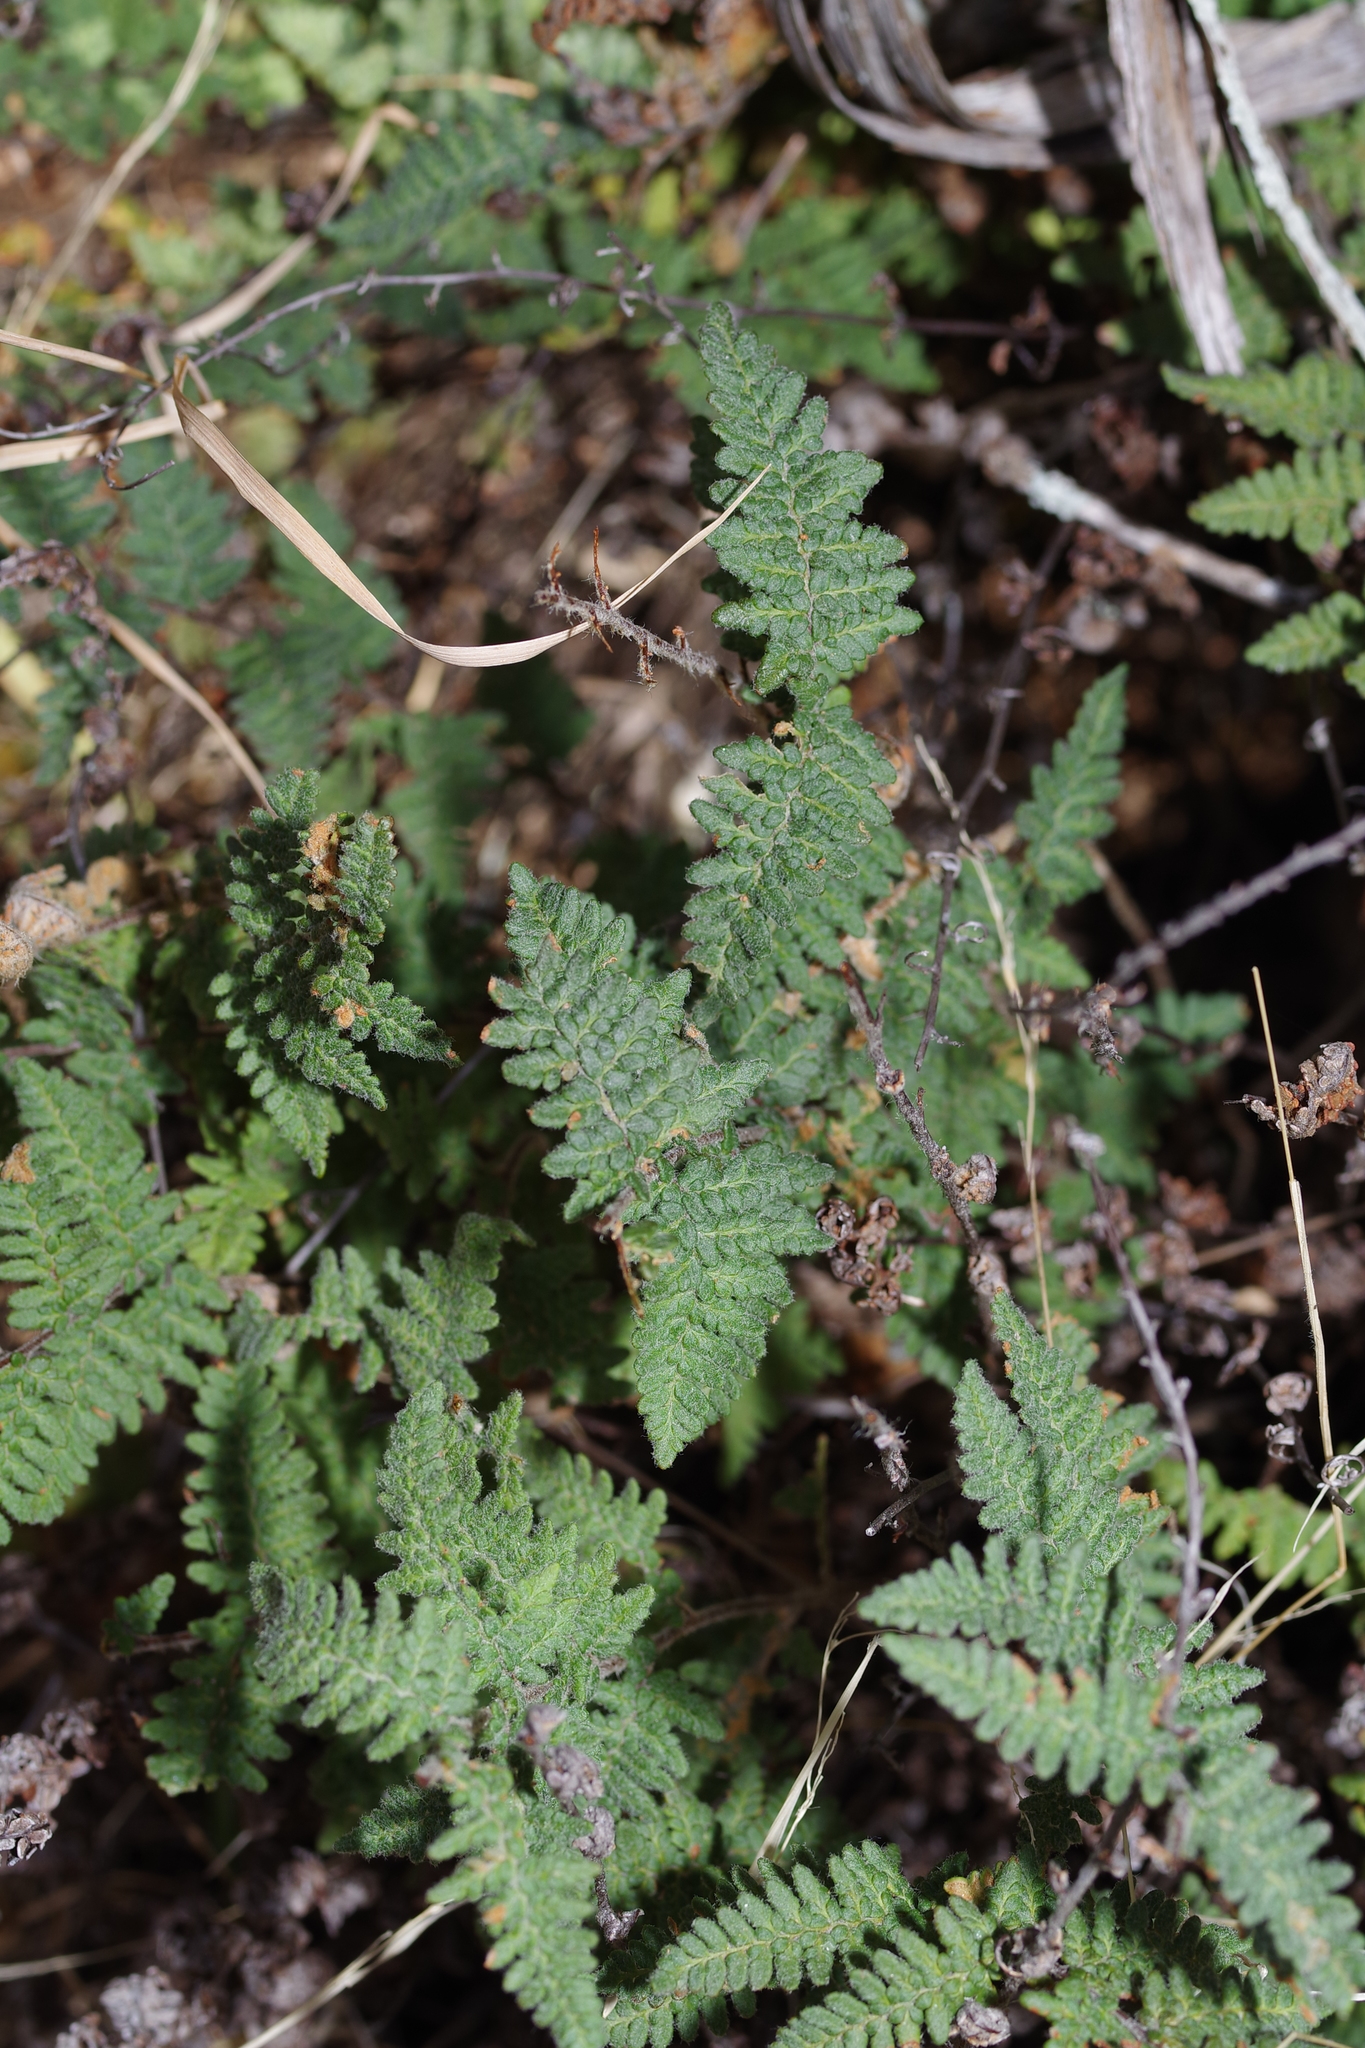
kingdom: Plantae
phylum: Tracheophyta
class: Polypodiopsida
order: Polypodiales
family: Pteridaceae
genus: Myriopteris
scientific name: Myriopteris tomentosa
